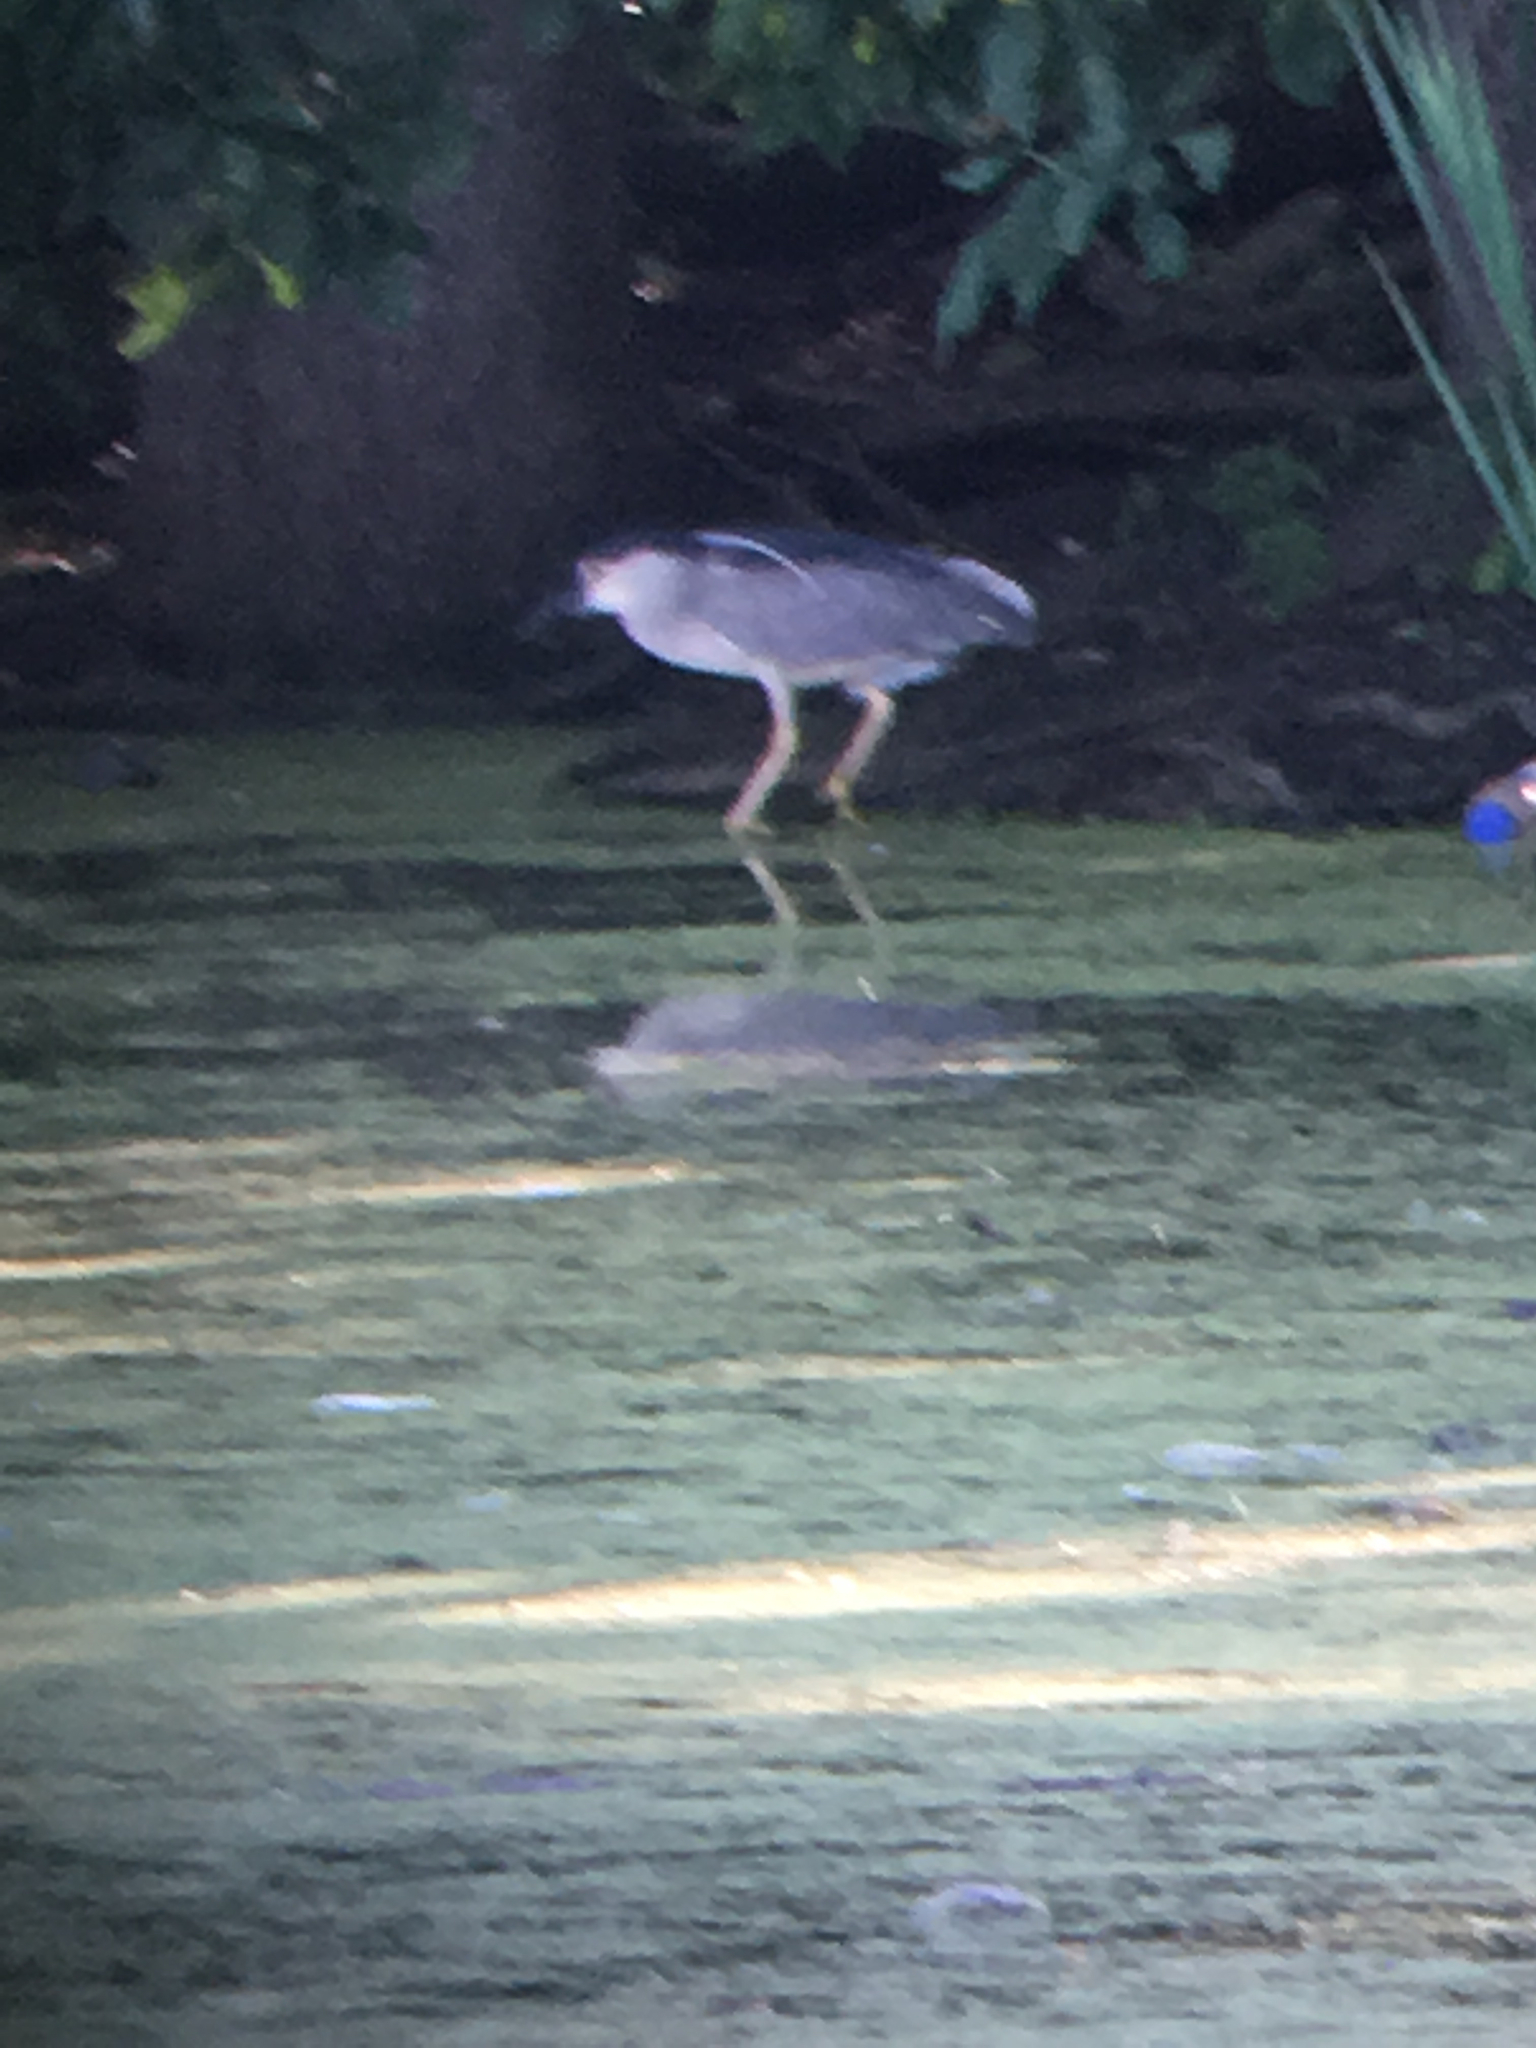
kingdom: Animalia
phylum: Chordata
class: Aves
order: Pelecaniformes
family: Ardeidae
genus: Nycticorax
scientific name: Nycticorax nycticorax
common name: Black-crowned night heron
